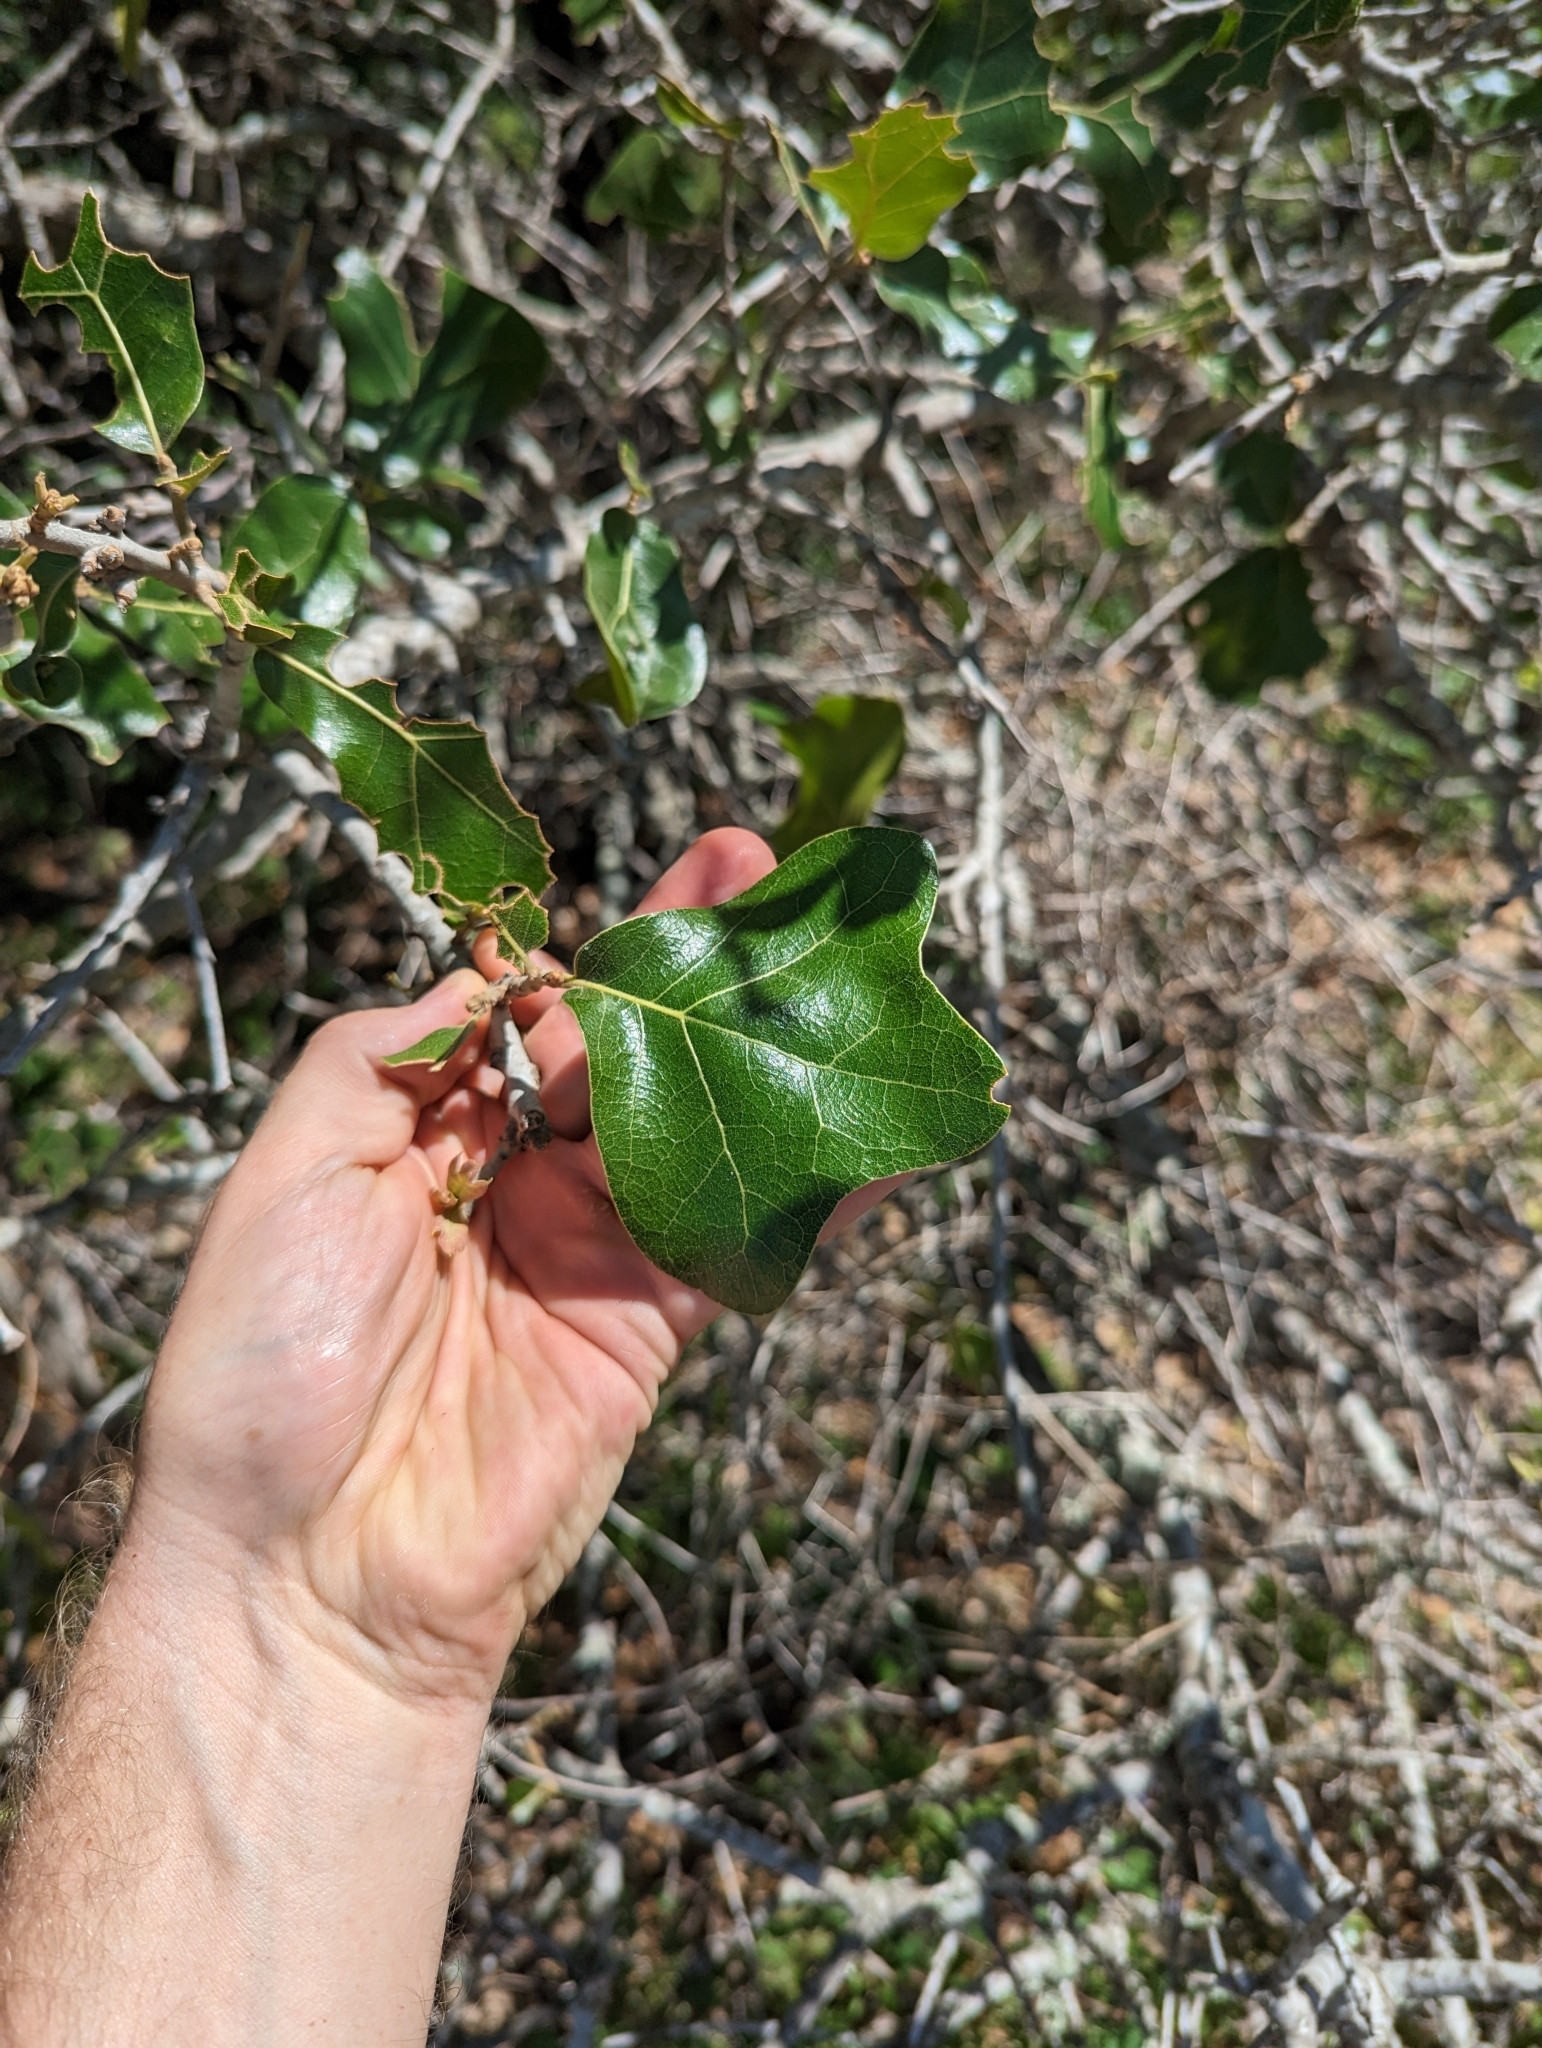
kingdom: Plantae
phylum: Tracheophyta
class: Magnoliopsida
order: Fagales
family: Fagaceae
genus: Quercus
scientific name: Quercus marilandica
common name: Blackjack oak
